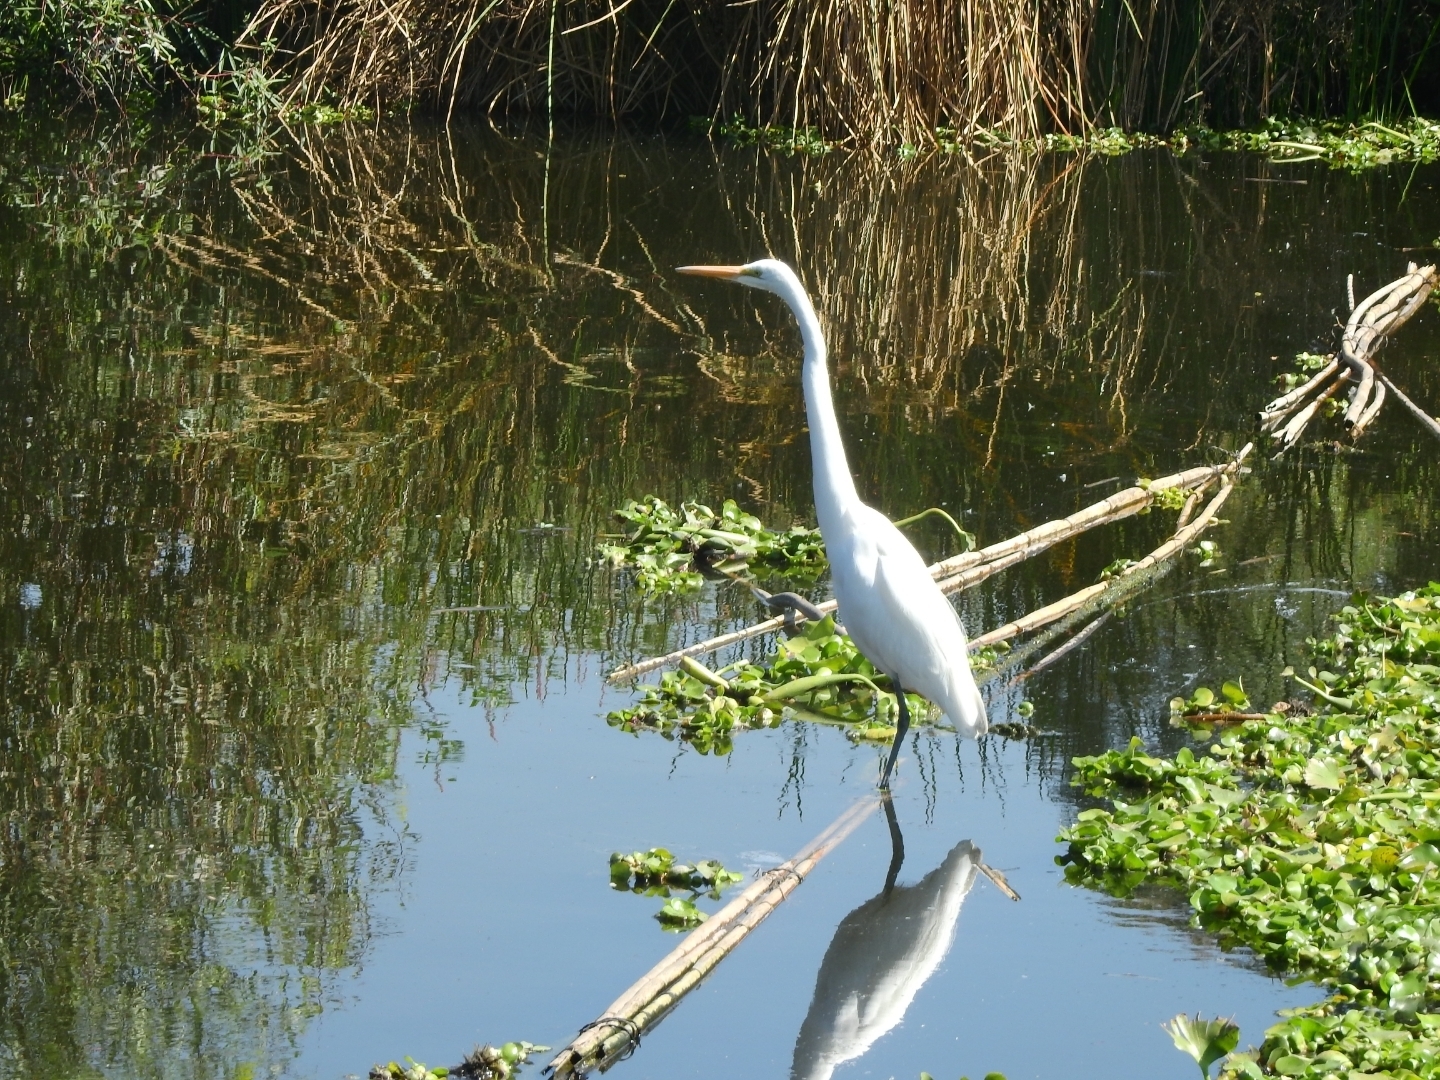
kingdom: Animalia
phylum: Chordata
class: Aves
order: Pelecaniformes
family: Ardeidae
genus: Ardea
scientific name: Ardea alba
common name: Great egret
